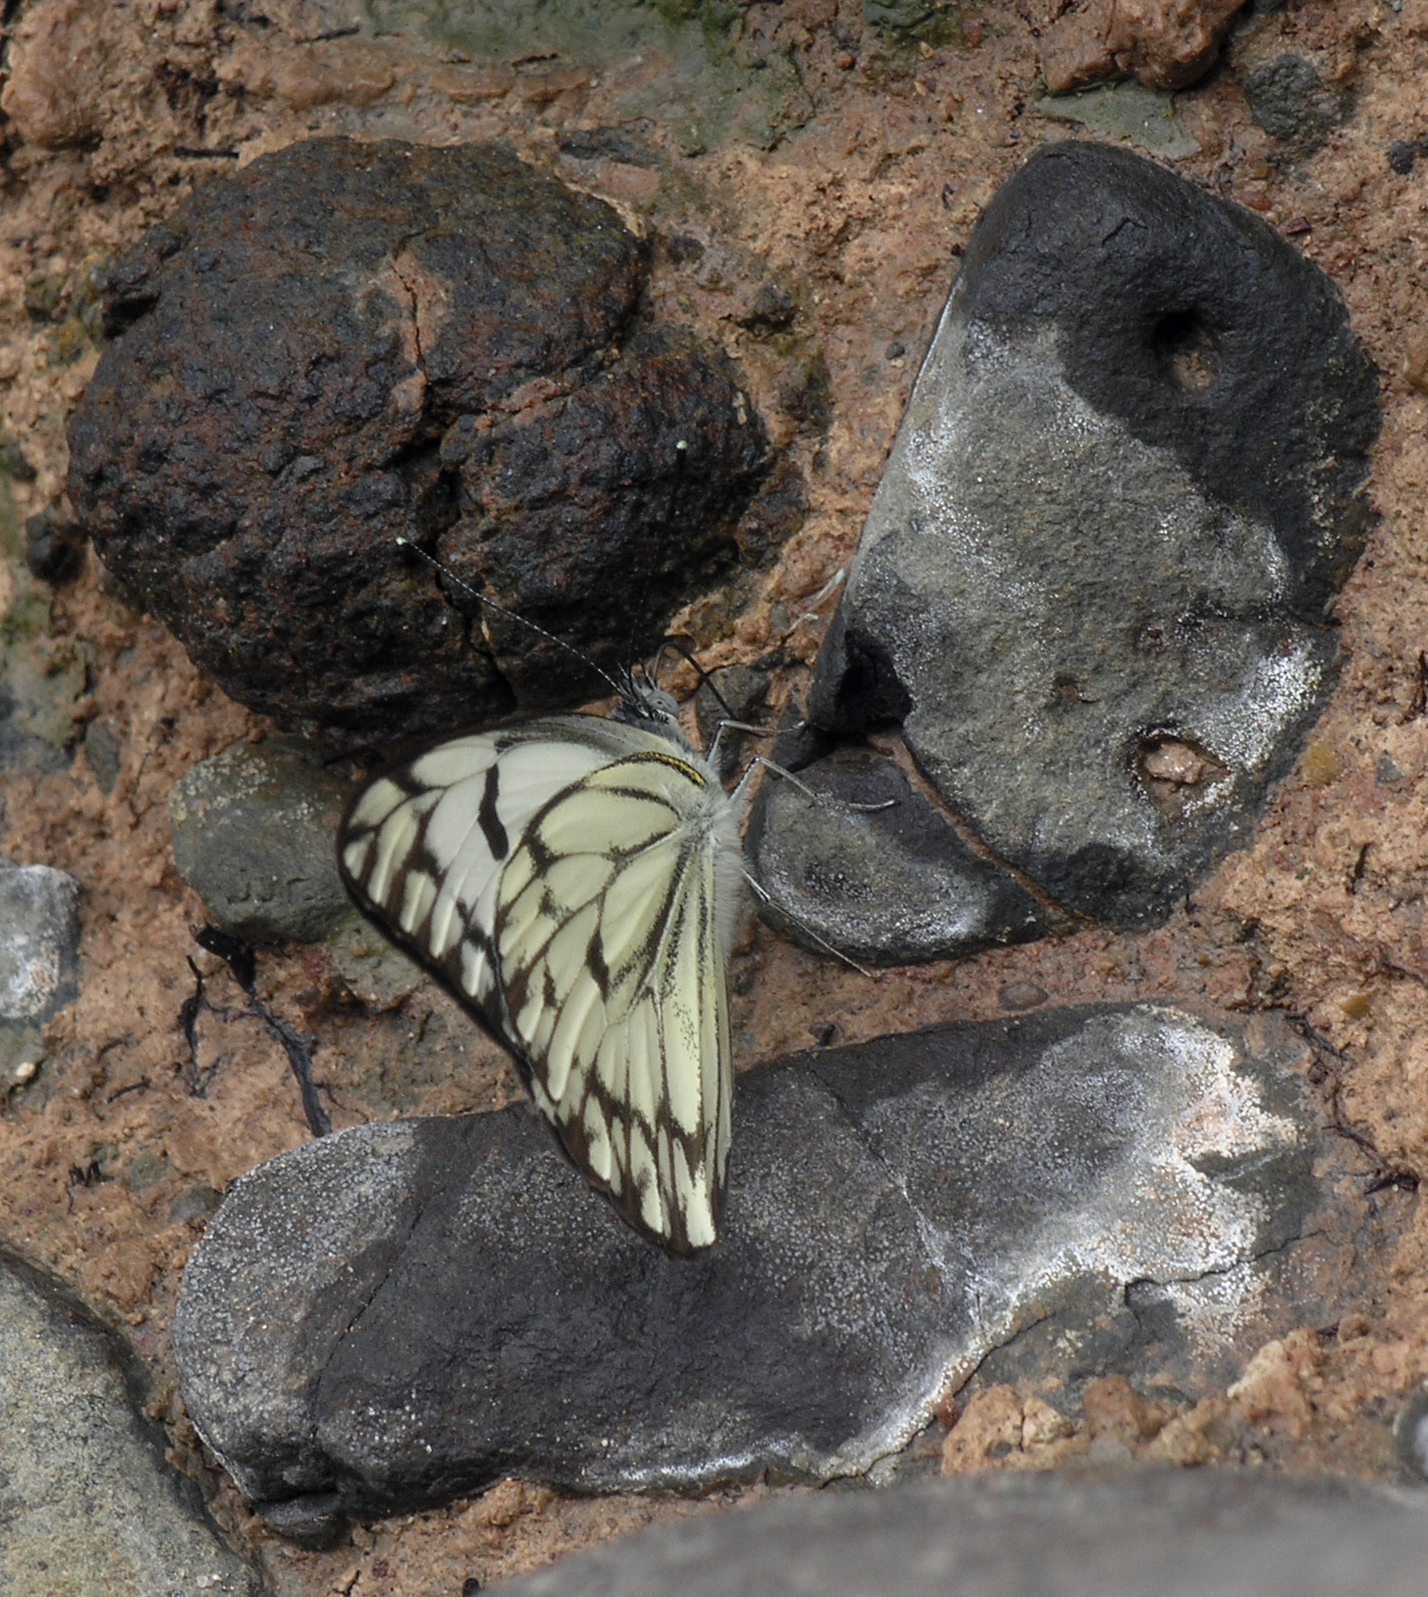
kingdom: Animalia
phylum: Arthropoda
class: Insecta
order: Lepidoptera
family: Pieridae
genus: Belenois
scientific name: Belenois gidica
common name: Pointed caper white
